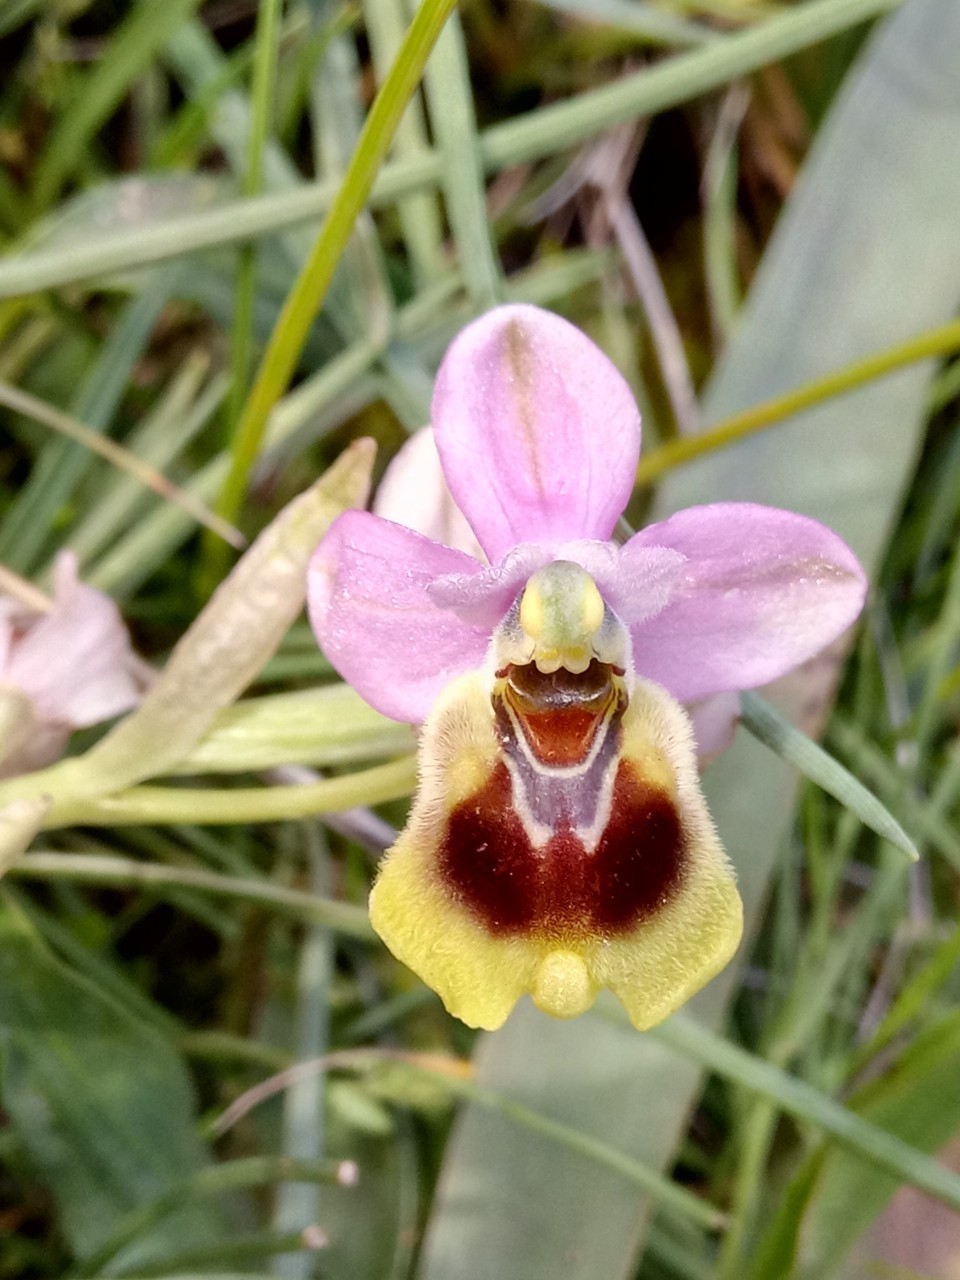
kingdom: Plantae
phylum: Tracheophyta
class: Liliopsida
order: Asparagales
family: Orchidaceae
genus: Ophrys
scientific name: Ophrys tenthredinifera
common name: Sawfly orchid
